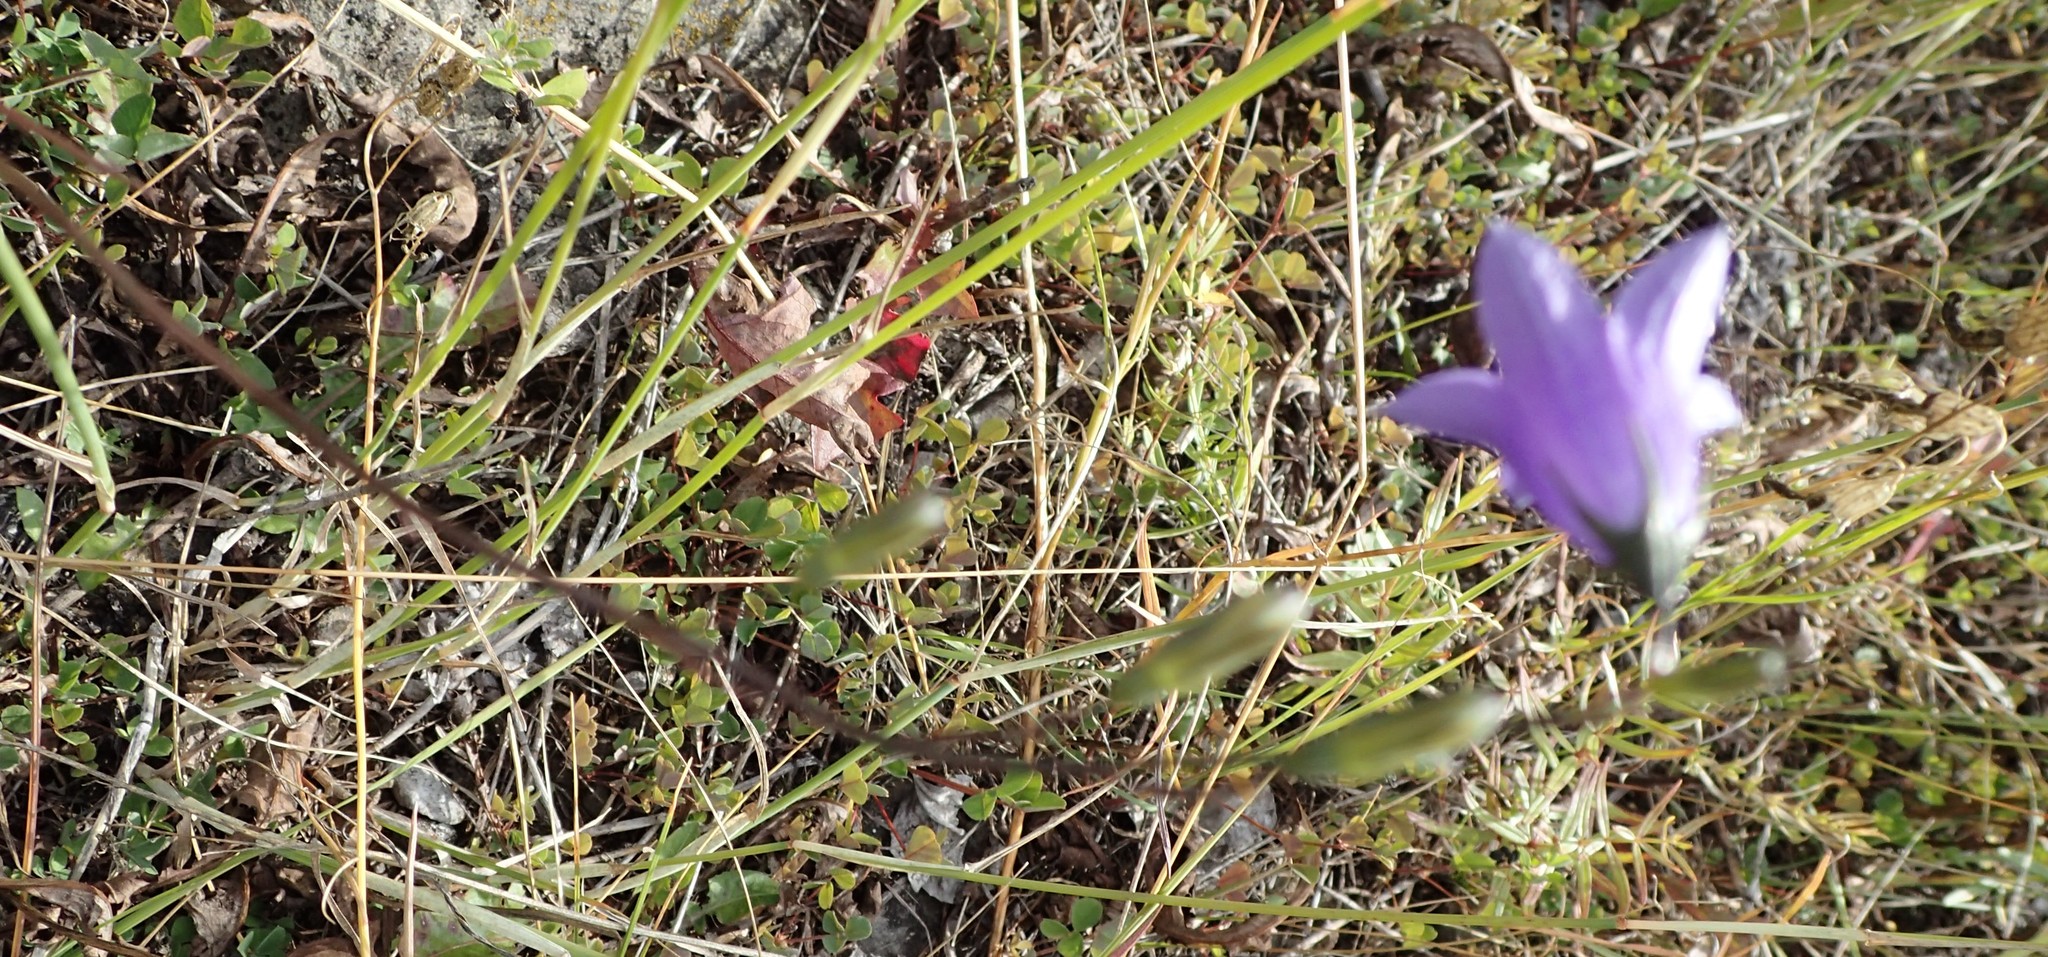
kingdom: Plantae
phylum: Tracheophyta
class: Magnoliopsida
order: Asterales
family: Campanulaceae
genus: Campanula
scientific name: Campanula alaskana
